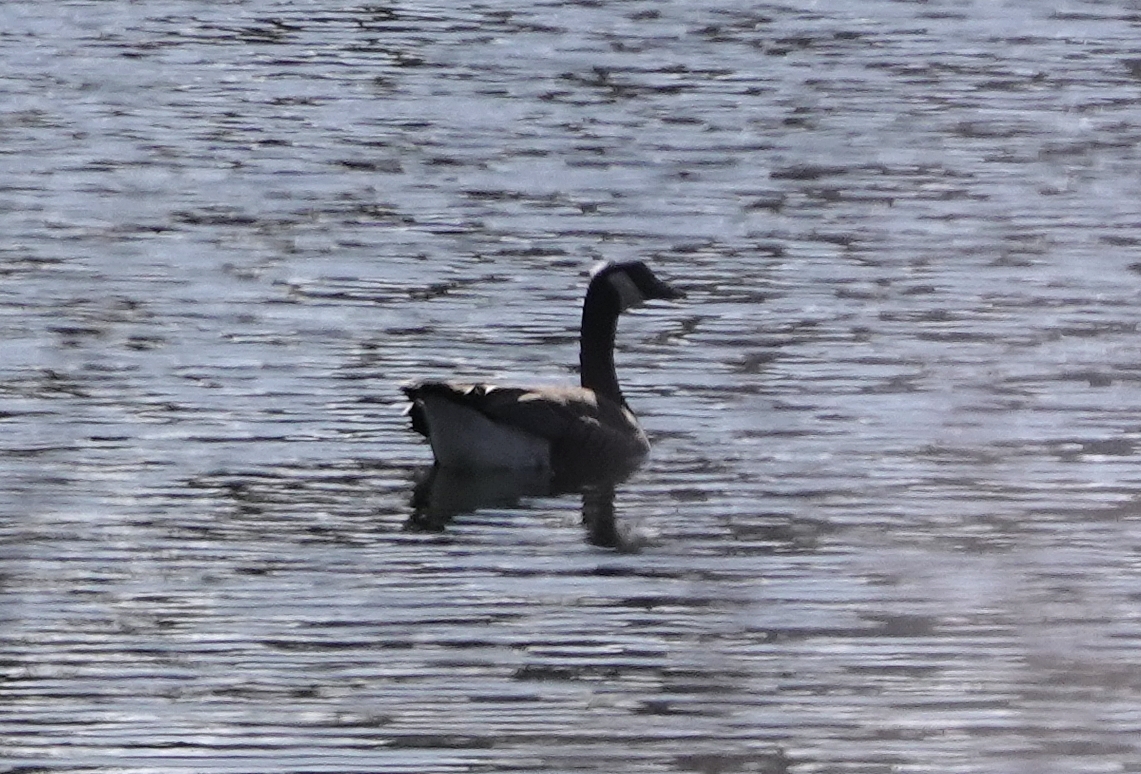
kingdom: Animalia
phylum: Chordata
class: Aves
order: Anseriformes
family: Anatidae
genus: Branta
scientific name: Branta canadensis
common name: Canada goose
